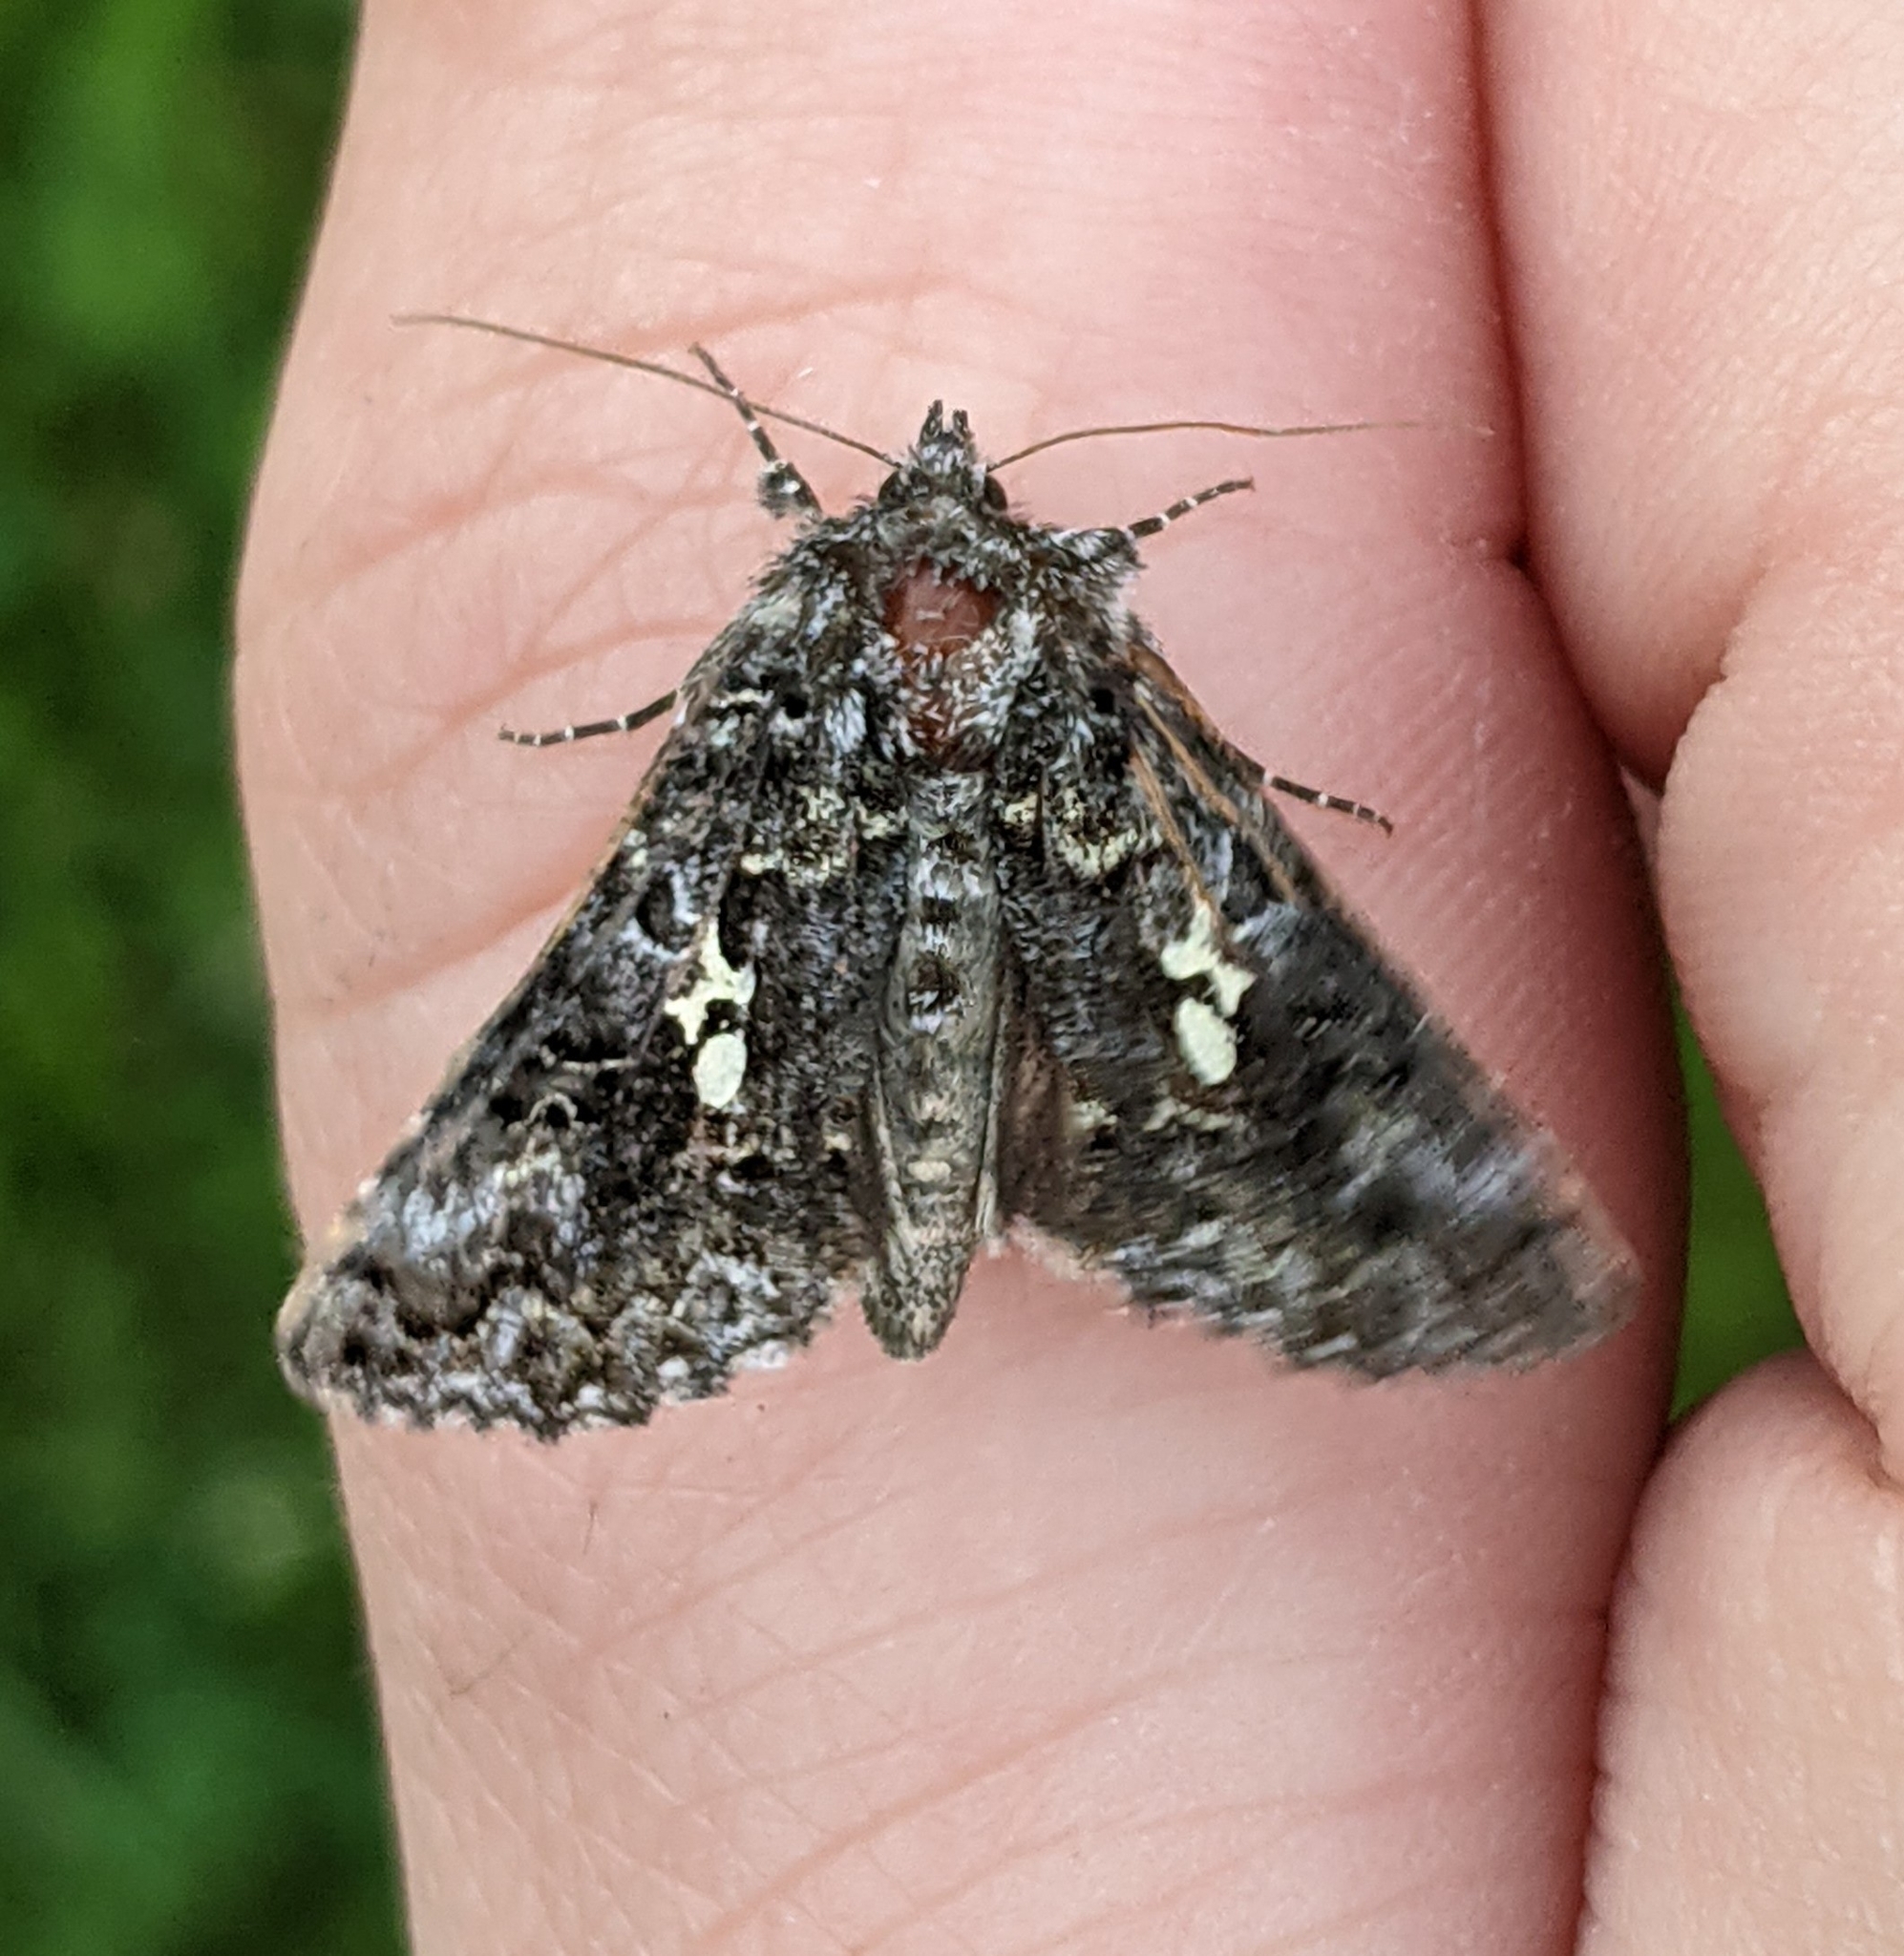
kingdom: Animalia
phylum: Arthropoda
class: Insecta
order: Lepidoptera
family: Noctuidae
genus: Syngrapha
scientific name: Syngrapha abstrusa
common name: Abstruse false looper moth
